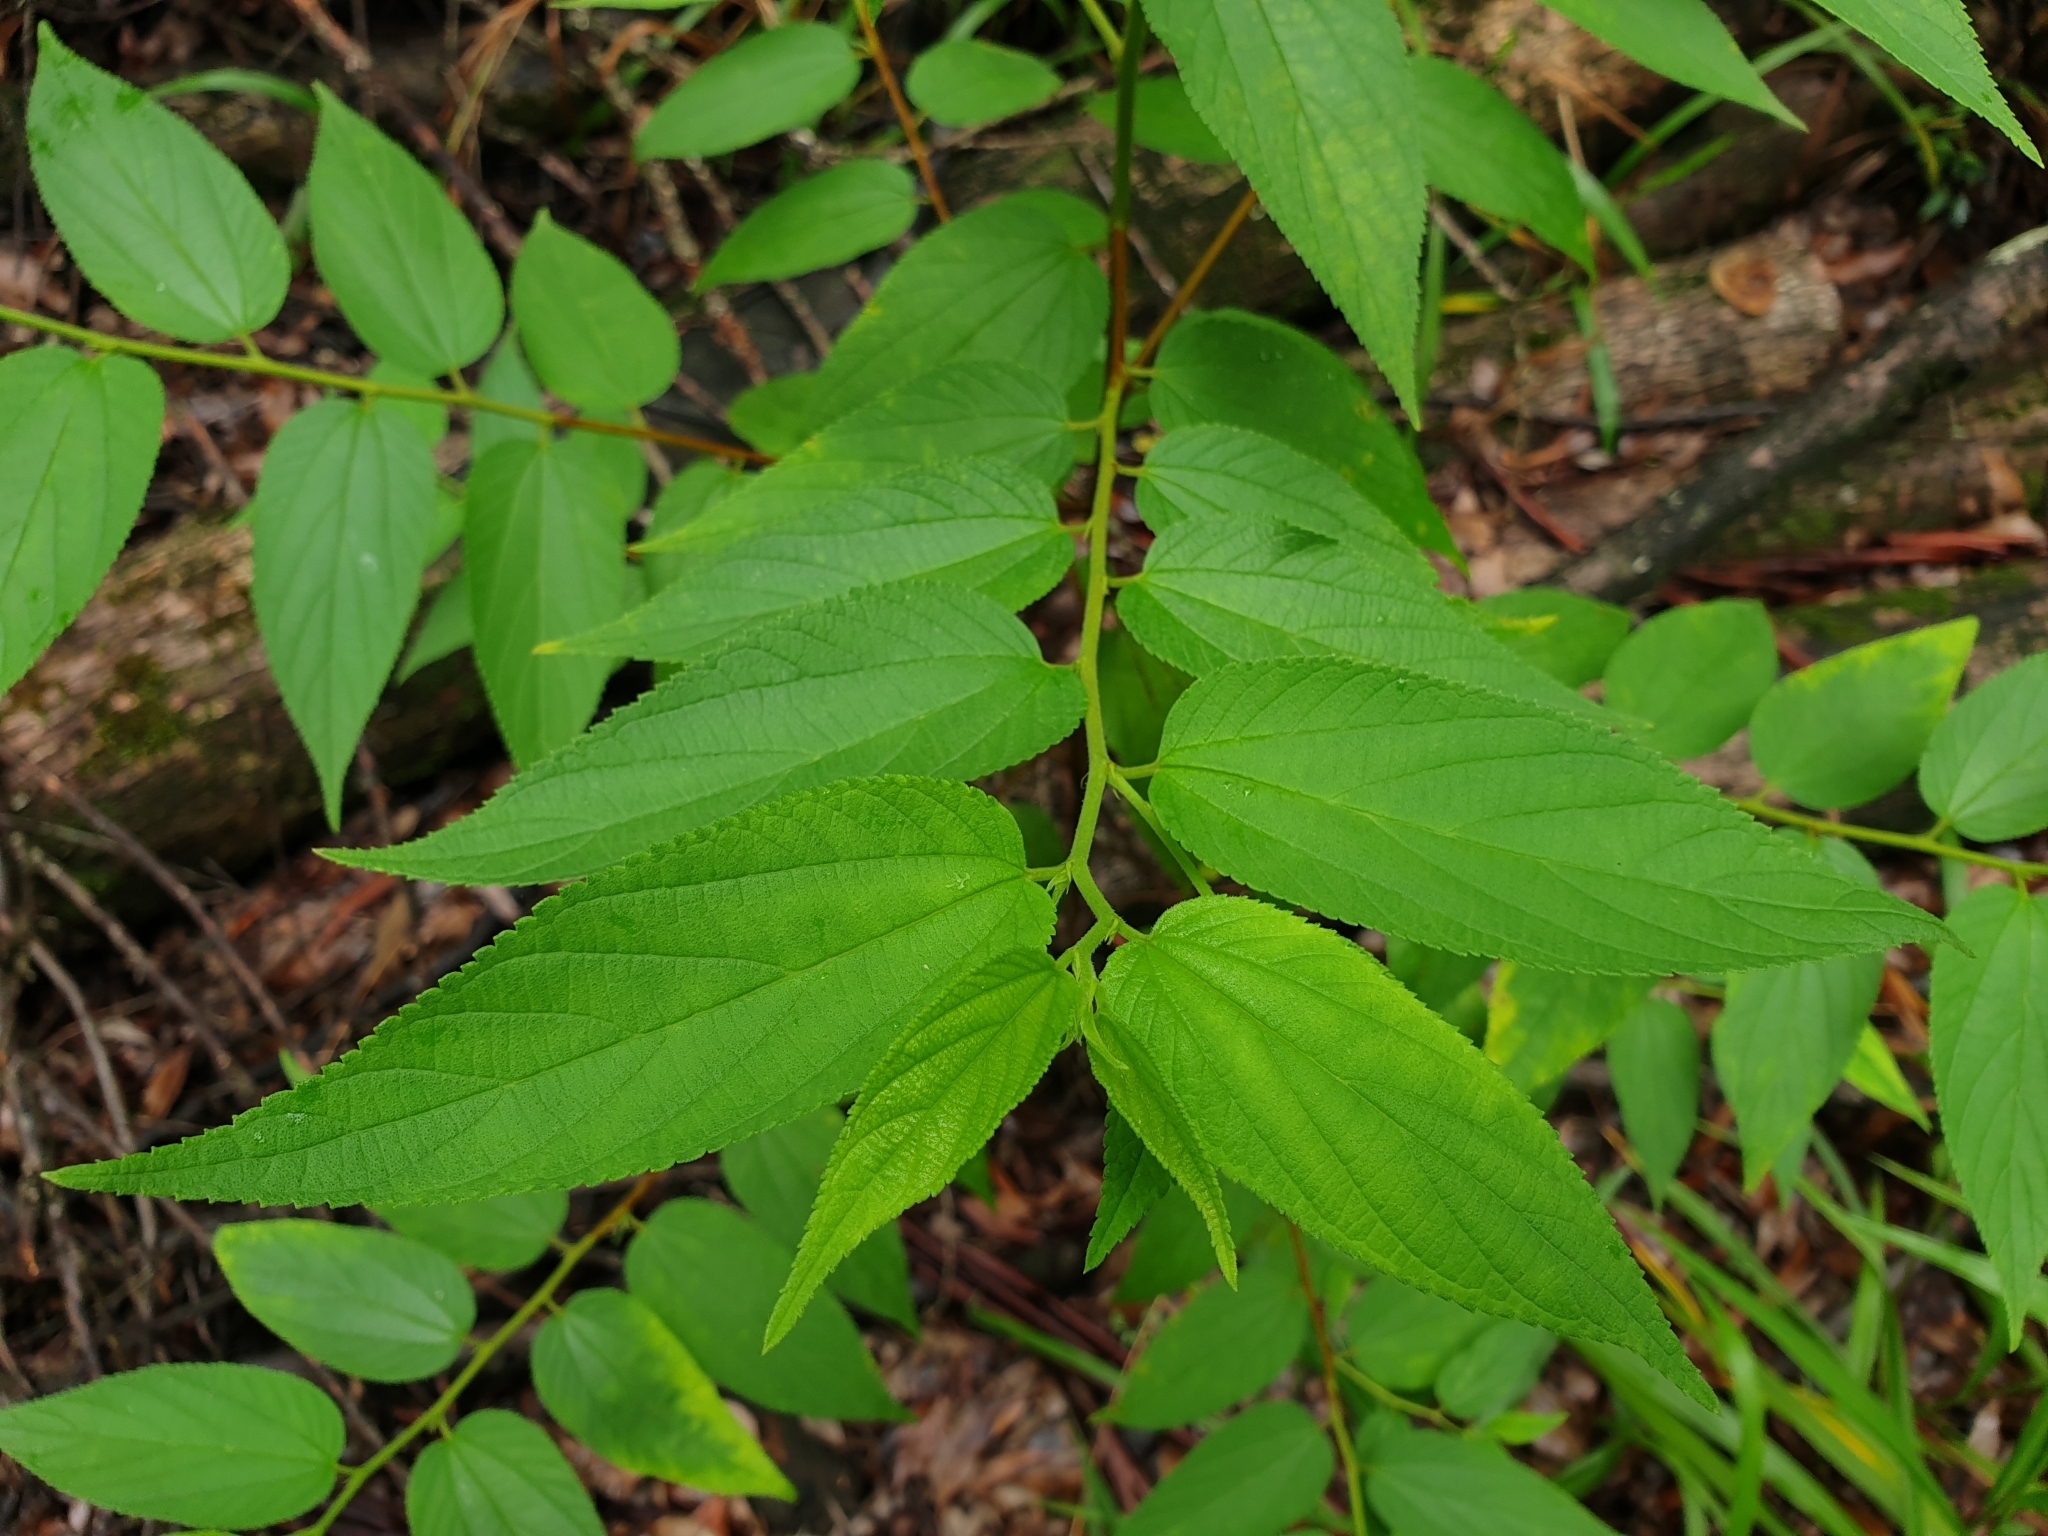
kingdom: Plantae
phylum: Tracheophyta
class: Magnoliopsida
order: Rosales
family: Cannabaceae
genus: Trema
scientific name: Trema tomentosum
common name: Peach-leaf-poisonbush
